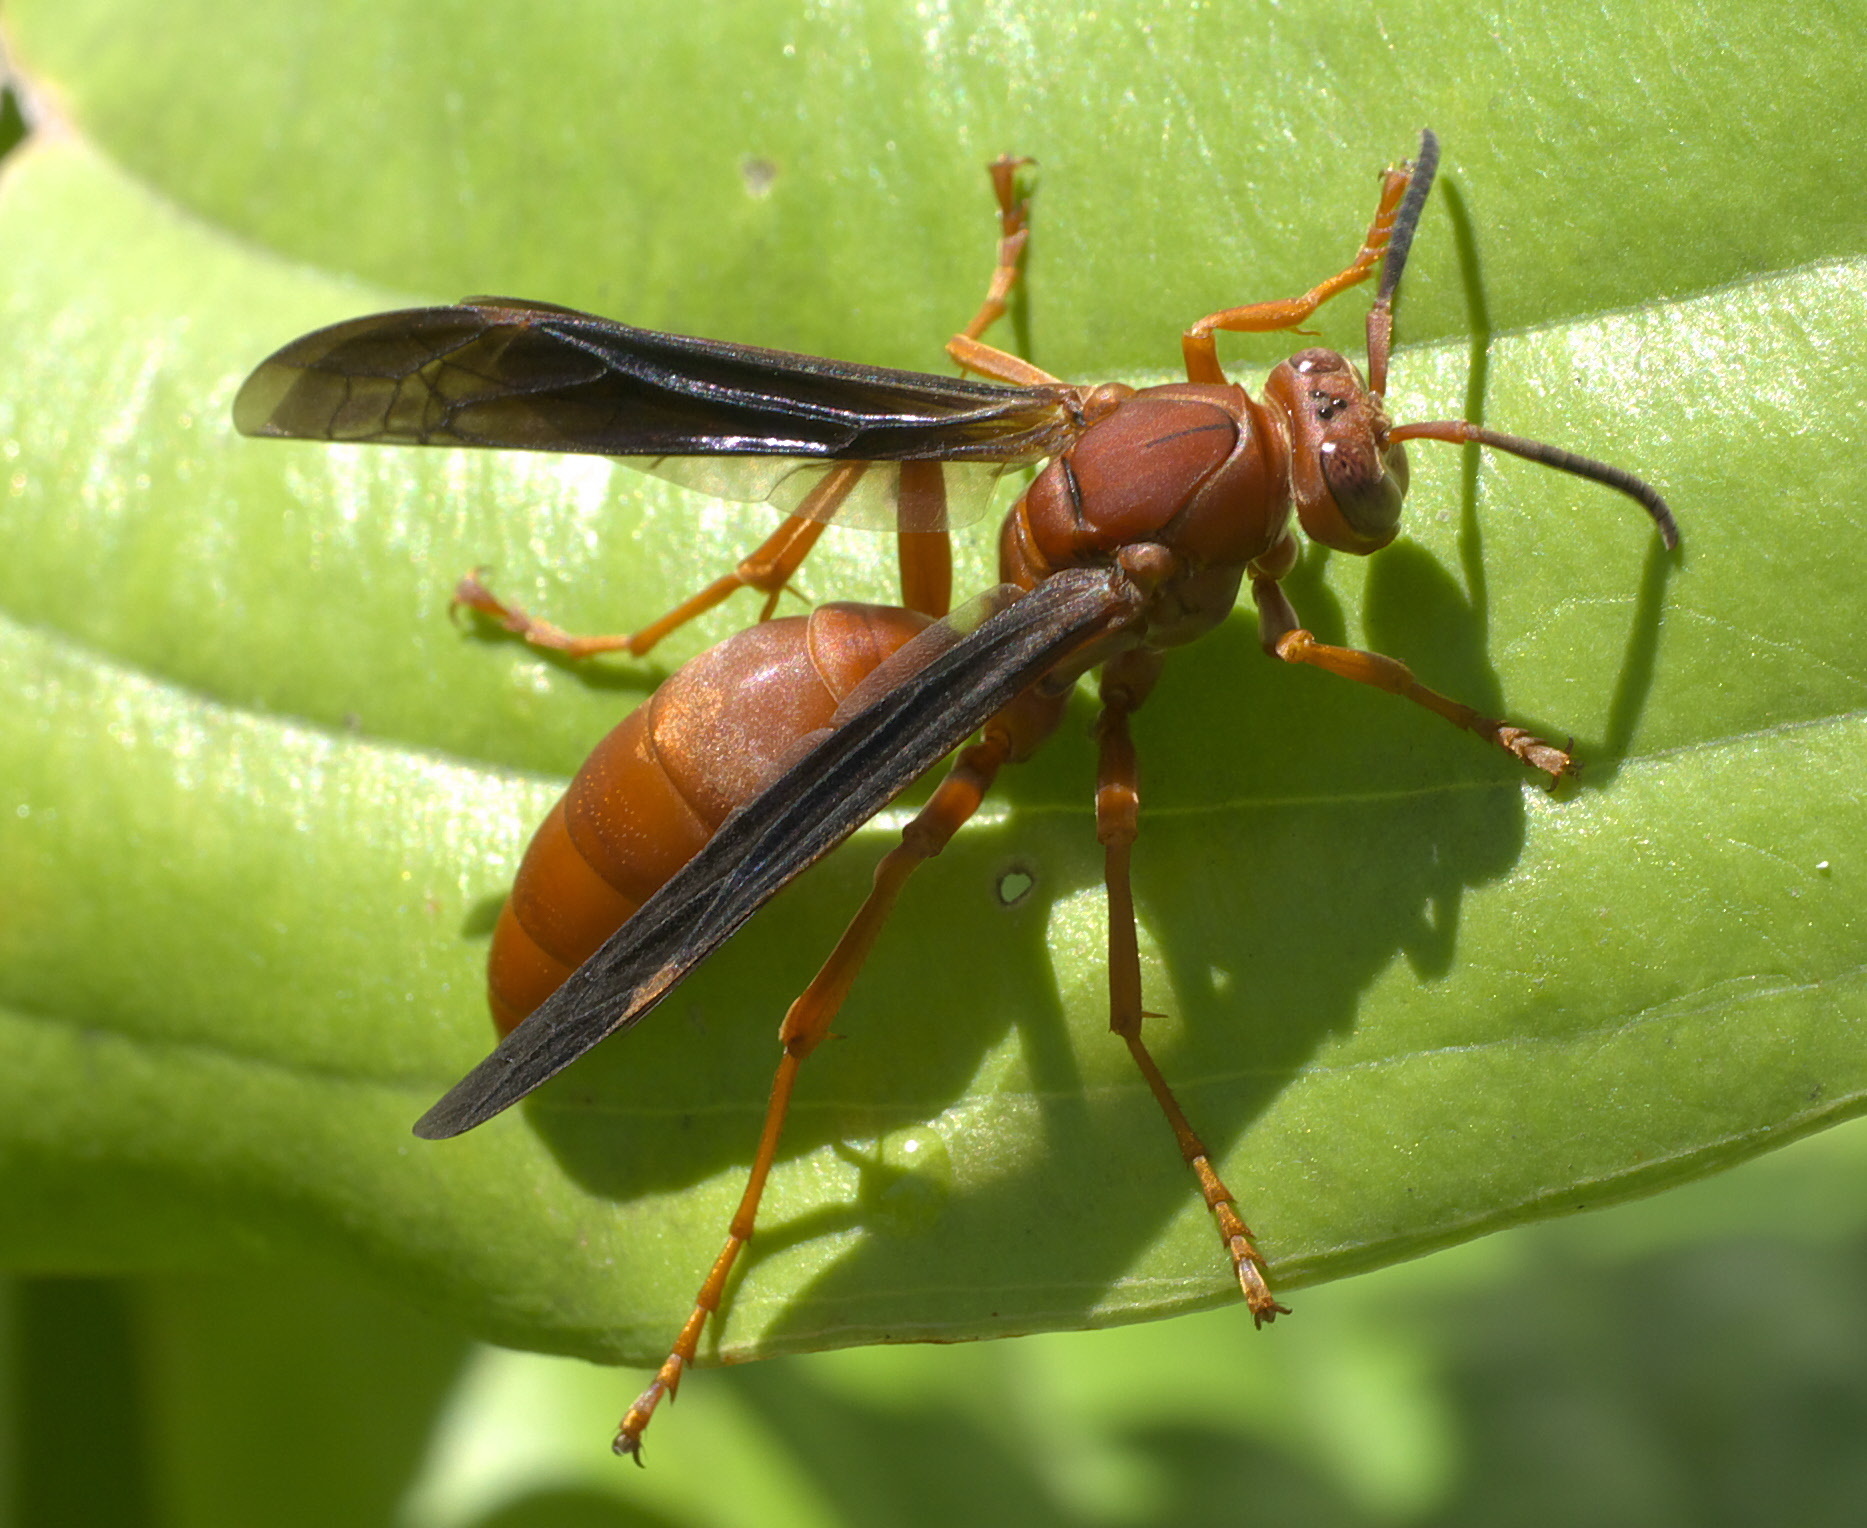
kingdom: Animalia
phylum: Arthropoda
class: Insecta
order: Hymenoptera
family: Vespidae
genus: Fuscopolistes
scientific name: Fuscopolistes
